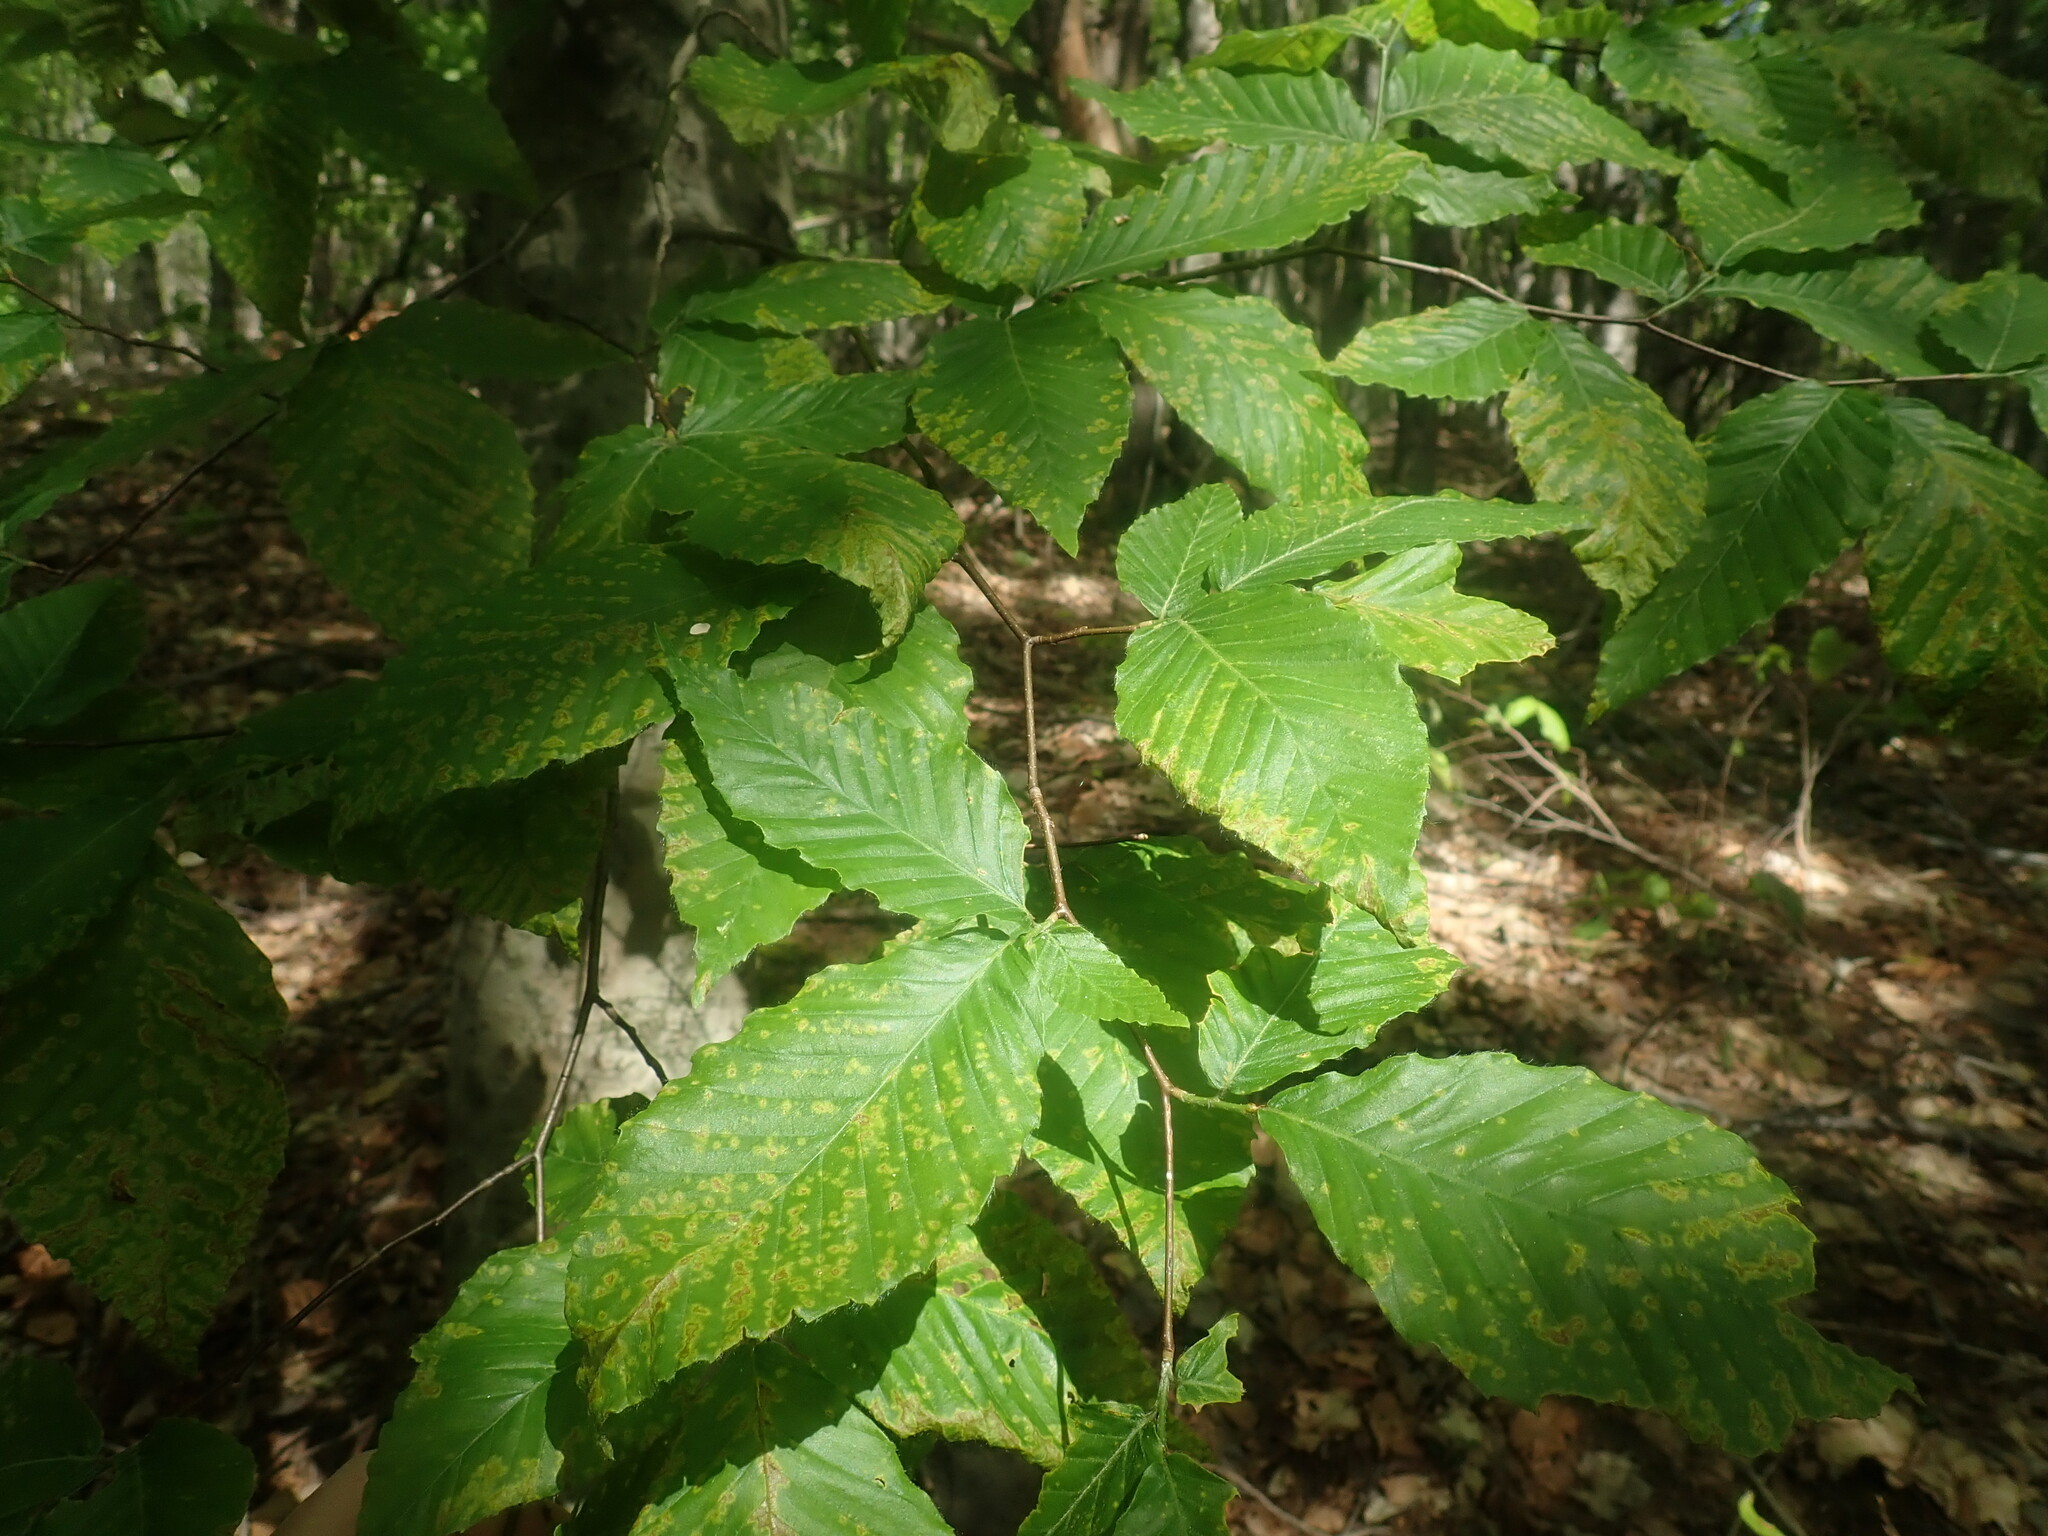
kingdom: Plantae
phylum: Tracheophyta
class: Magnoliopsida
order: Fagales
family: Fagaceae
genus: Fagus
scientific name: Fagus grandifolia
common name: American beech
